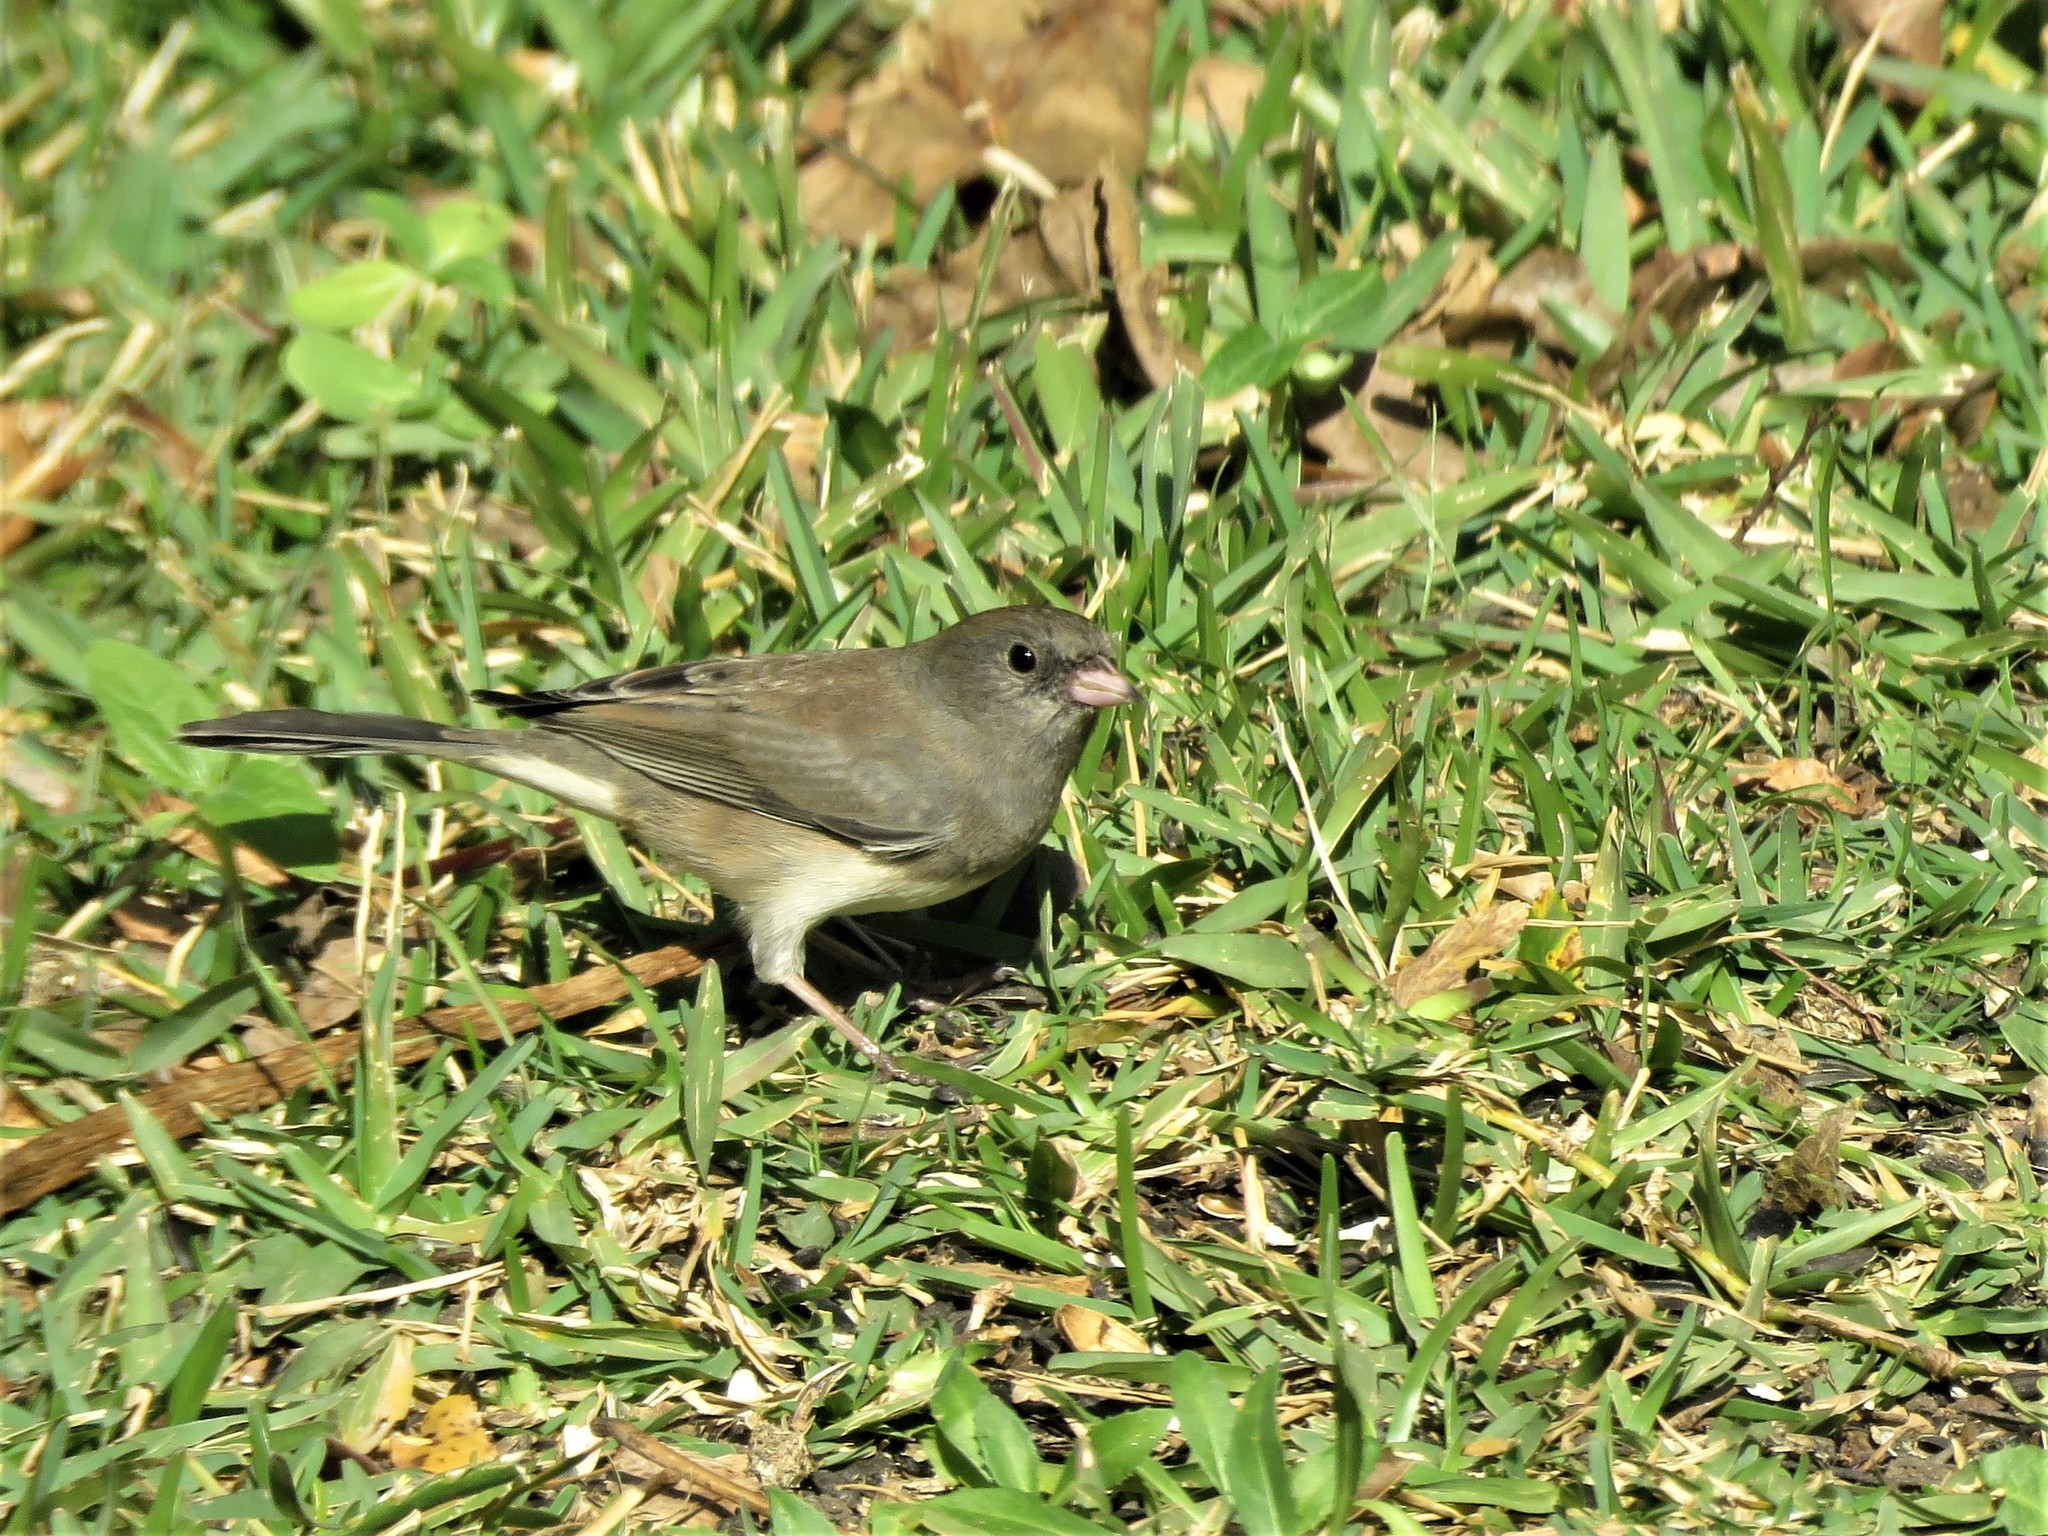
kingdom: Animalia
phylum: Chordata
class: Aves
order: Passeriformes
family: Passerellidae
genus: Junco
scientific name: Junco hyemalis
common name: Dark-eyed junco
